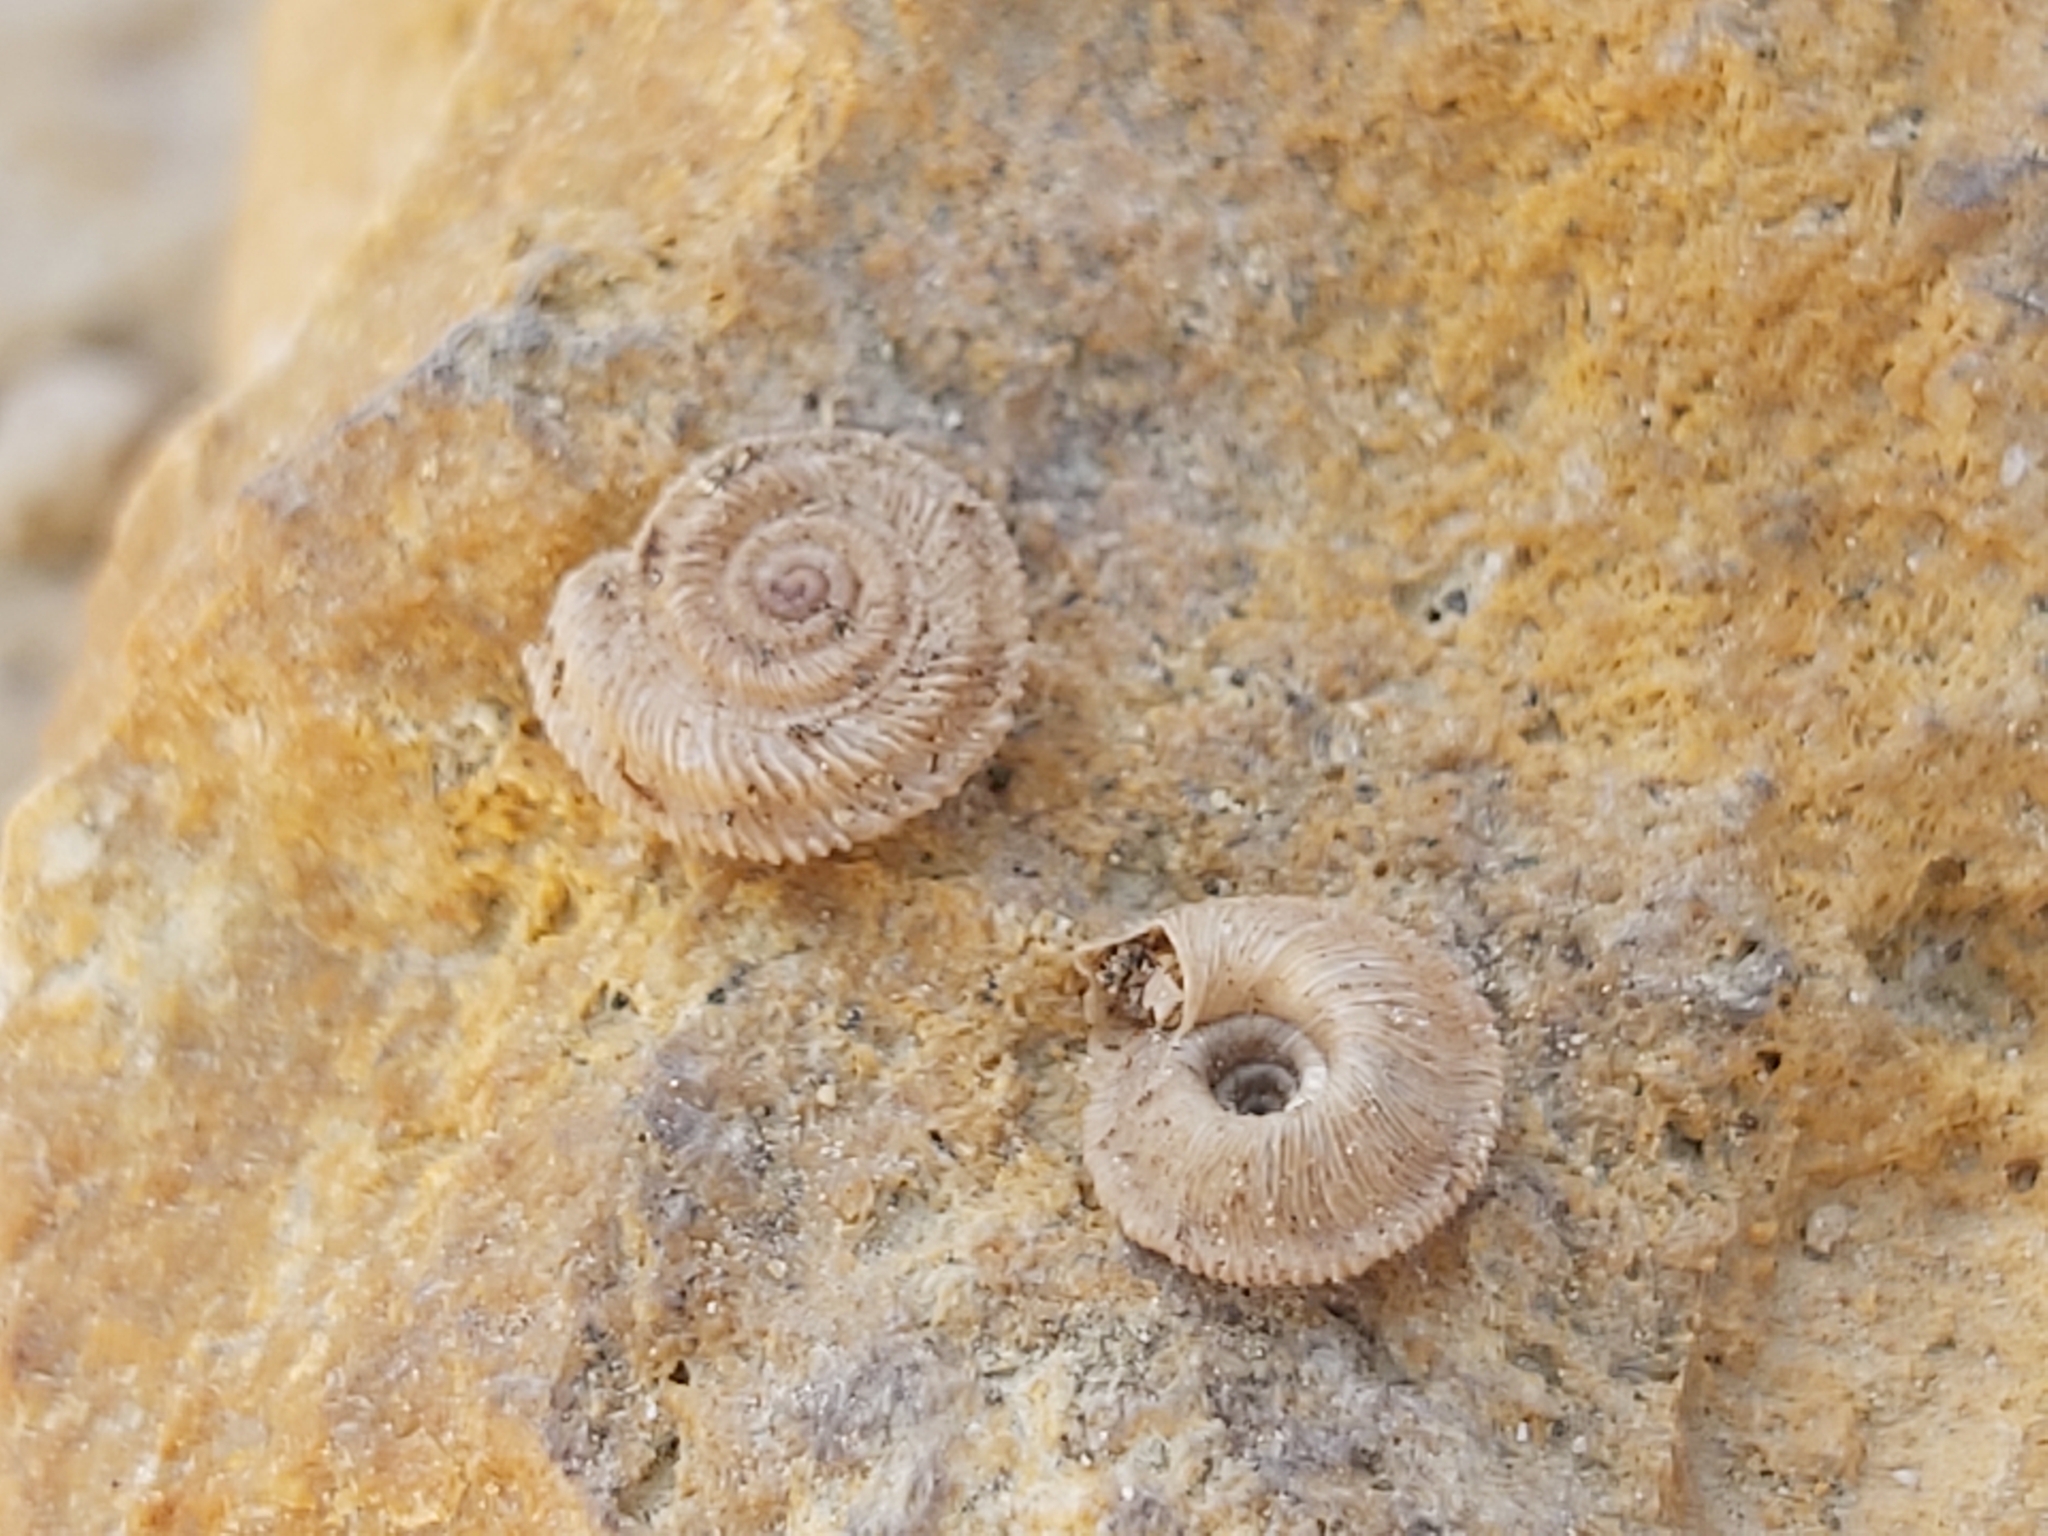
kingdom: Animalia
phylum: Mollusca
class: Gastropoda
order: Stylommatophora
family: Geomitridae
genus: Trochoidea
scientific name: Trochoidea spratti
